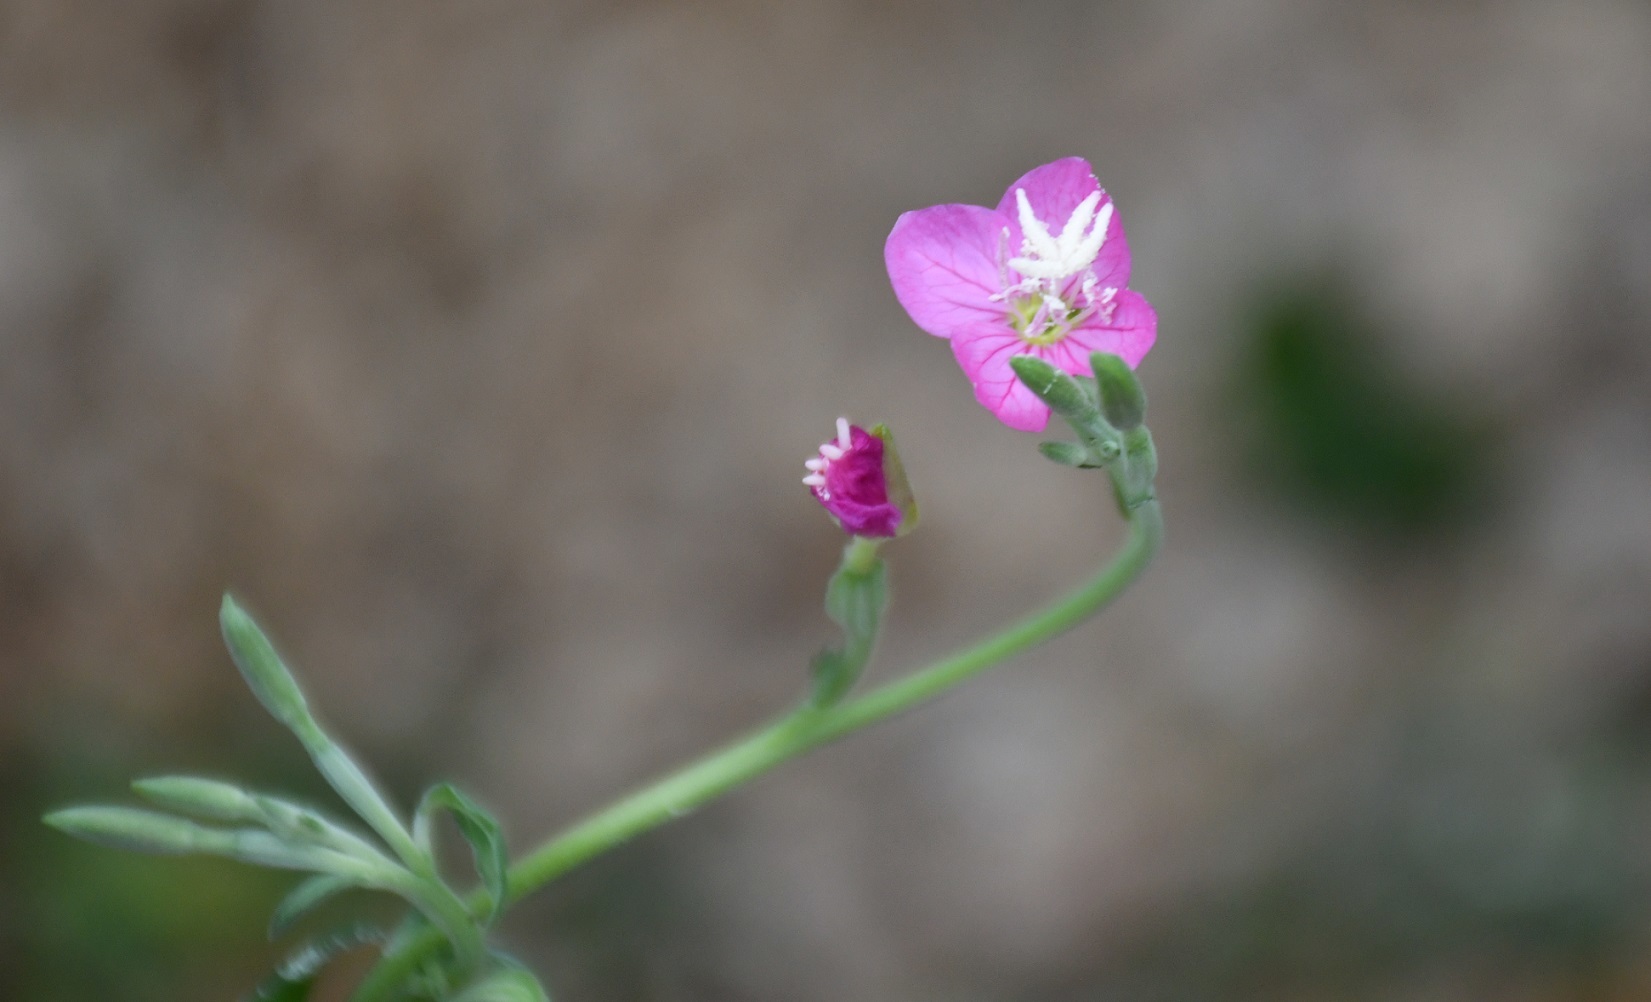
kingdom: Plantae
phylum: Tracheophyta
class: Magnoliopsida
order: Myrtales
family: Onagraceae
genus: Oenothera
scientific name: Oenothera rosea
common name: Rosy evening-primrose
